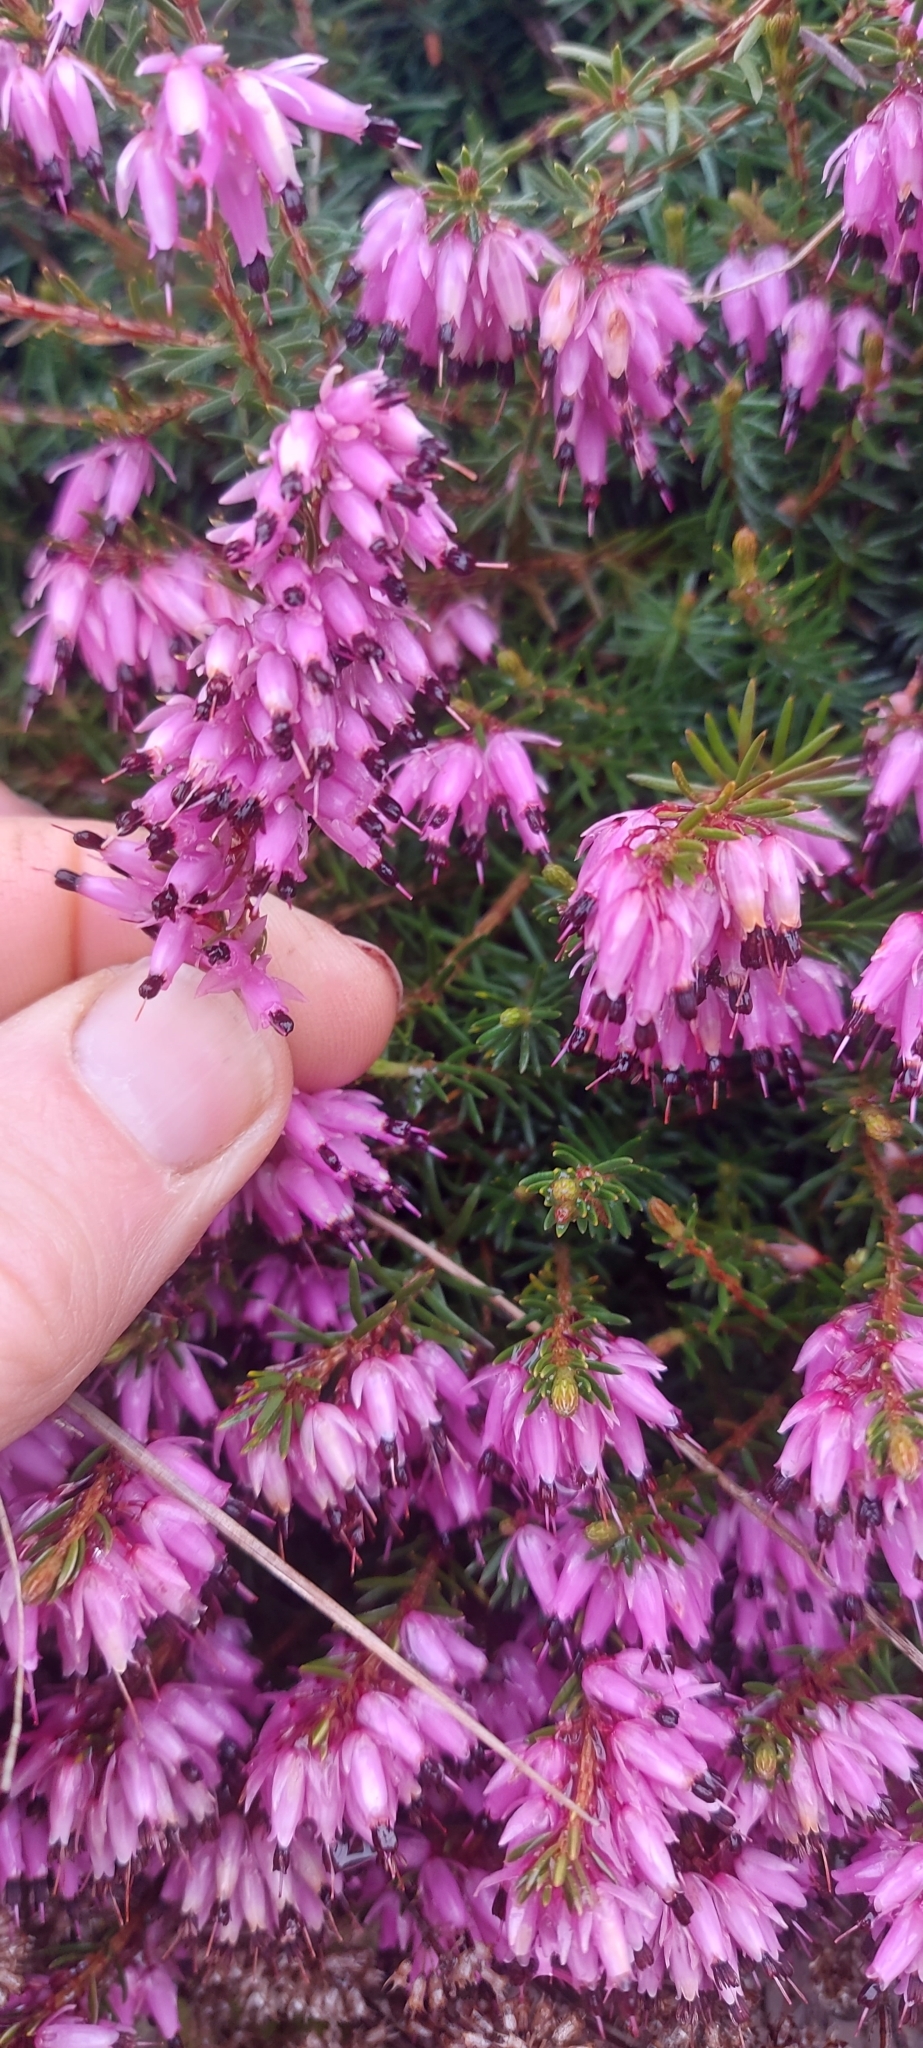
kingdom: Plantae
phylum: Tracheophyta
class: Magnoliopsida
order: Ericales
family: Ericaceae
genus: Erica
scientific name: Erica carnea
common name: Winter heath
